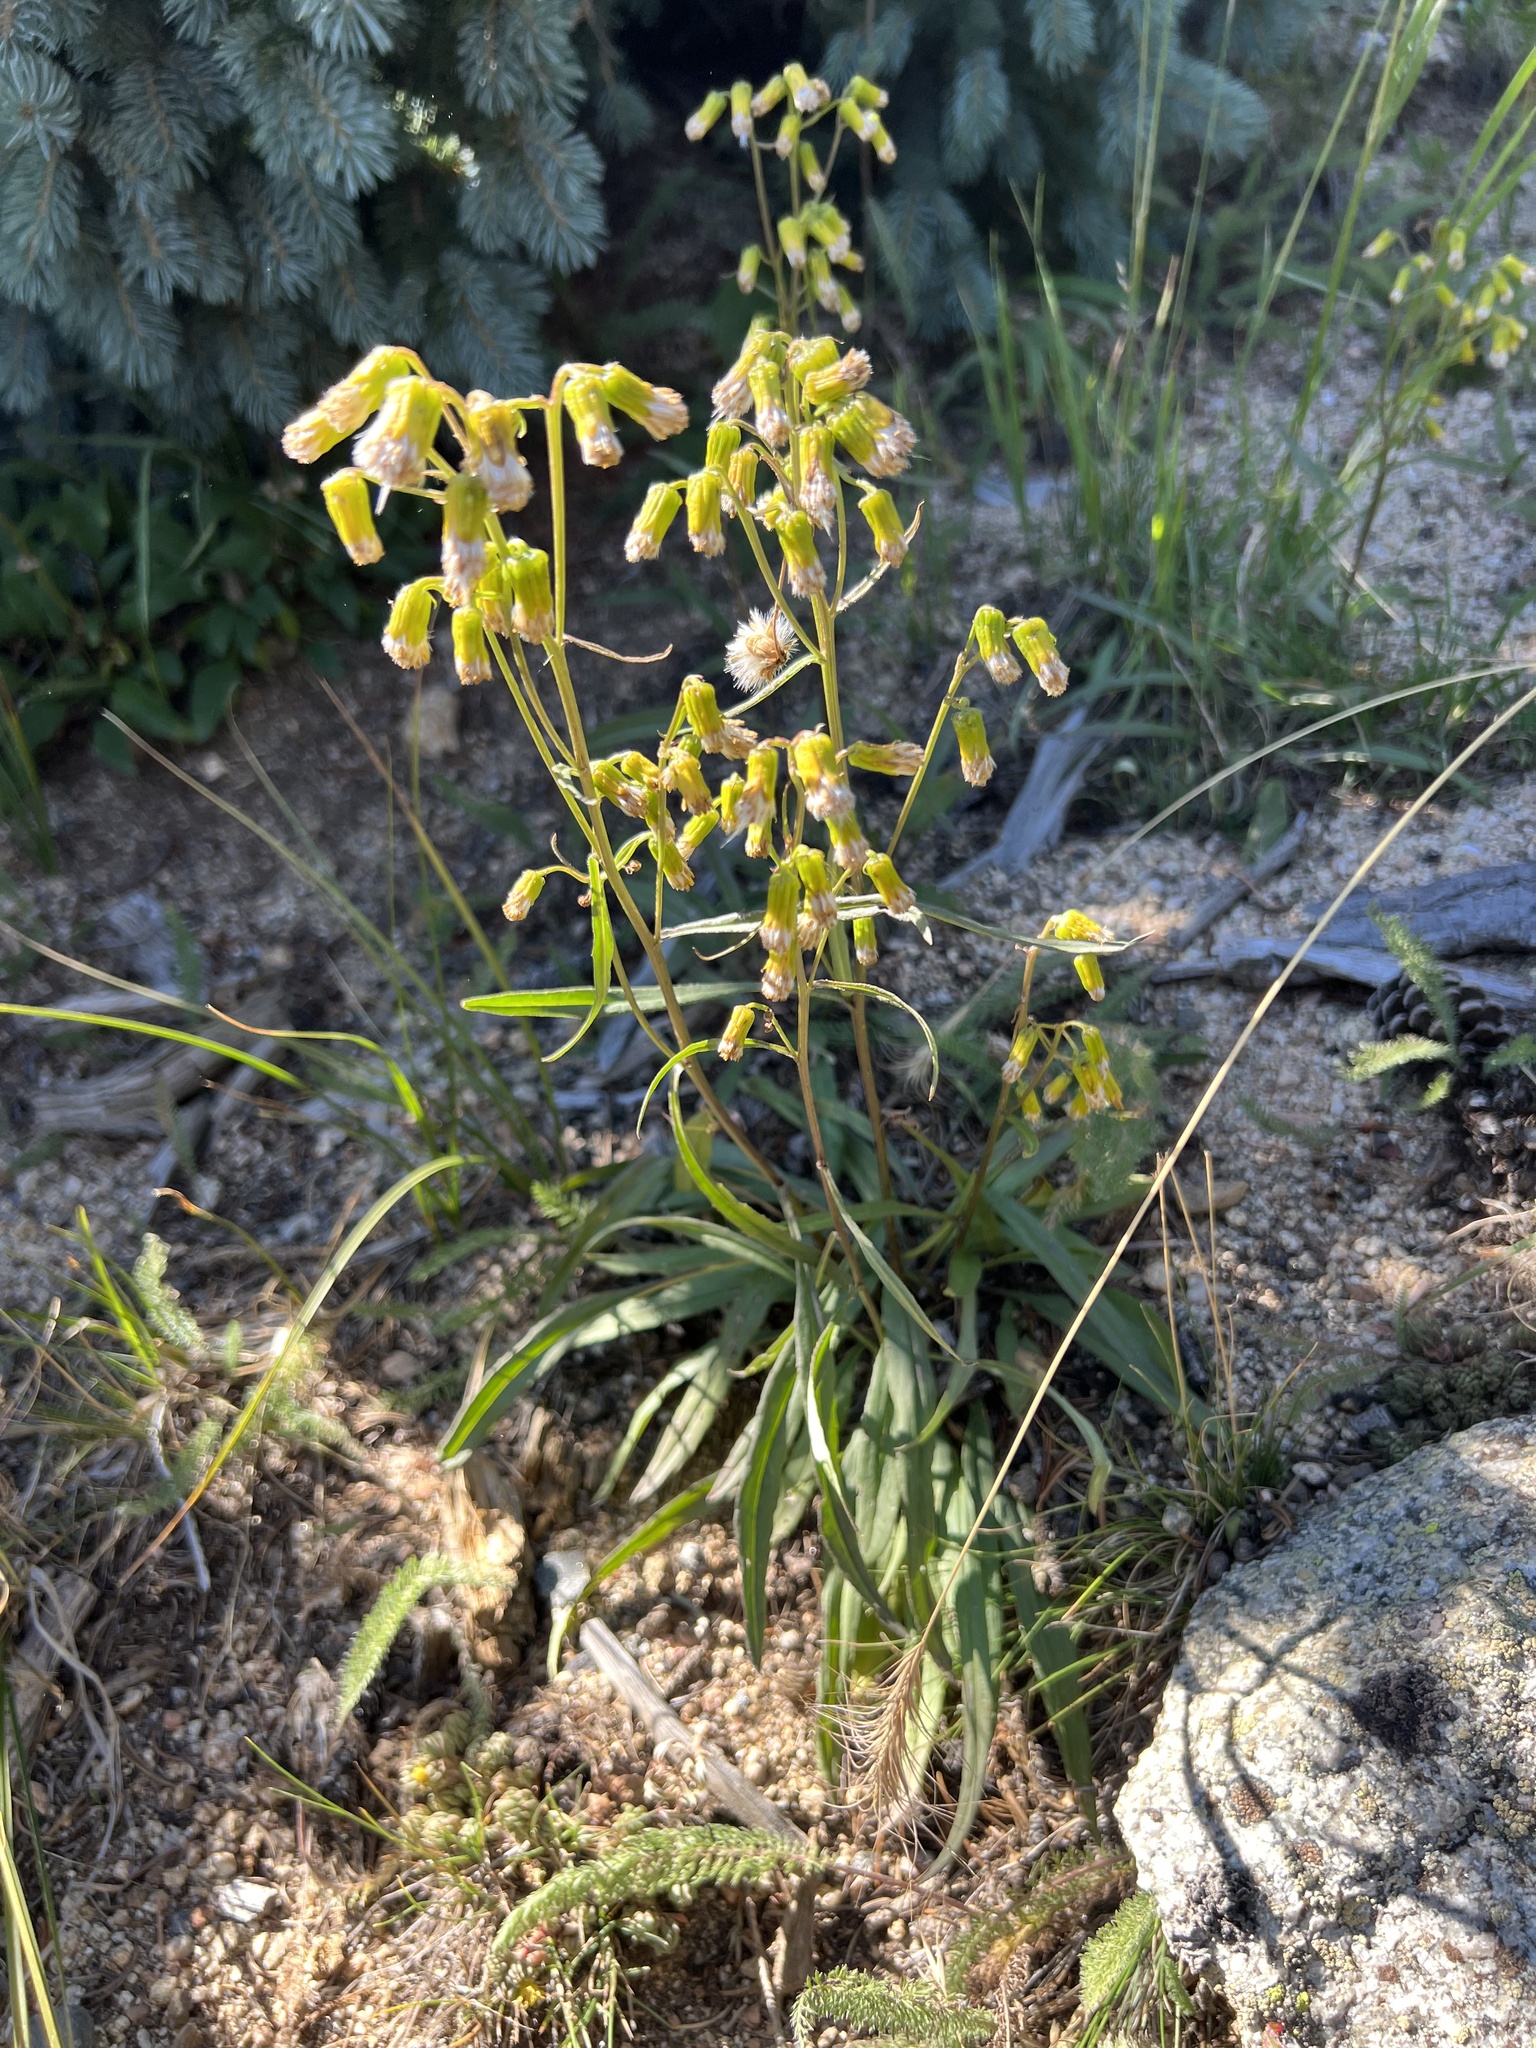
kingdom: Plantae
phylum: Tracheophyta
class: Magnoliopsida
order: Asterales
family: Asteraceae
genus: Senecio
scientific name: Senecio pudicus
